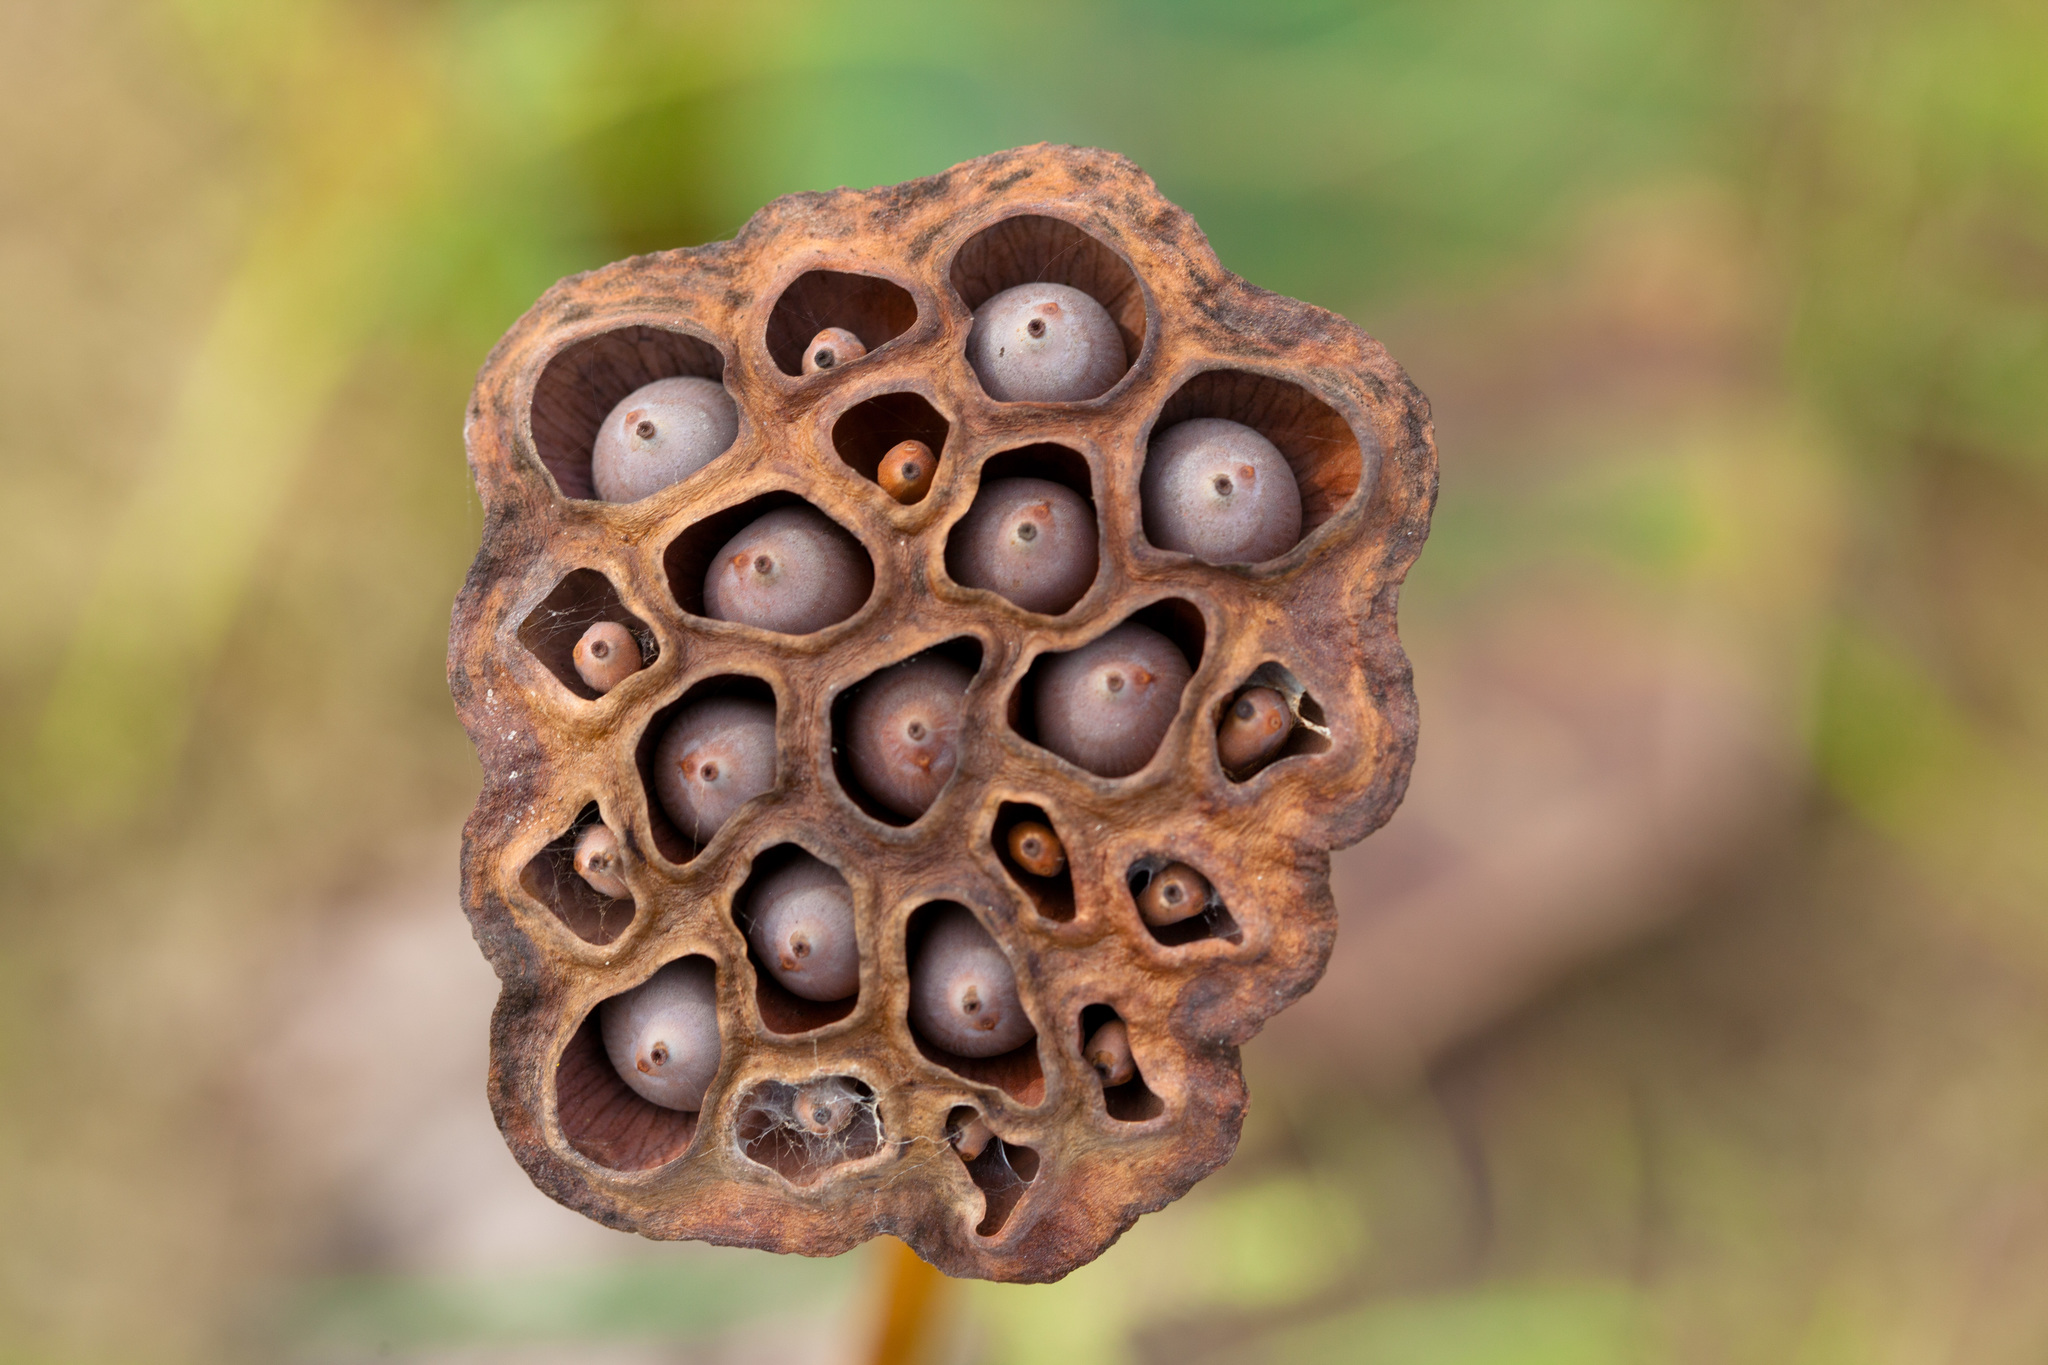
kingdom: Plantae
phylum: Tracheophyta
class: Magnoliopsida
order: Proteales
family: Nelumbonaceae
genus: Nelumbo
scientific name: Nelumbo lutea
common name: American lotus
